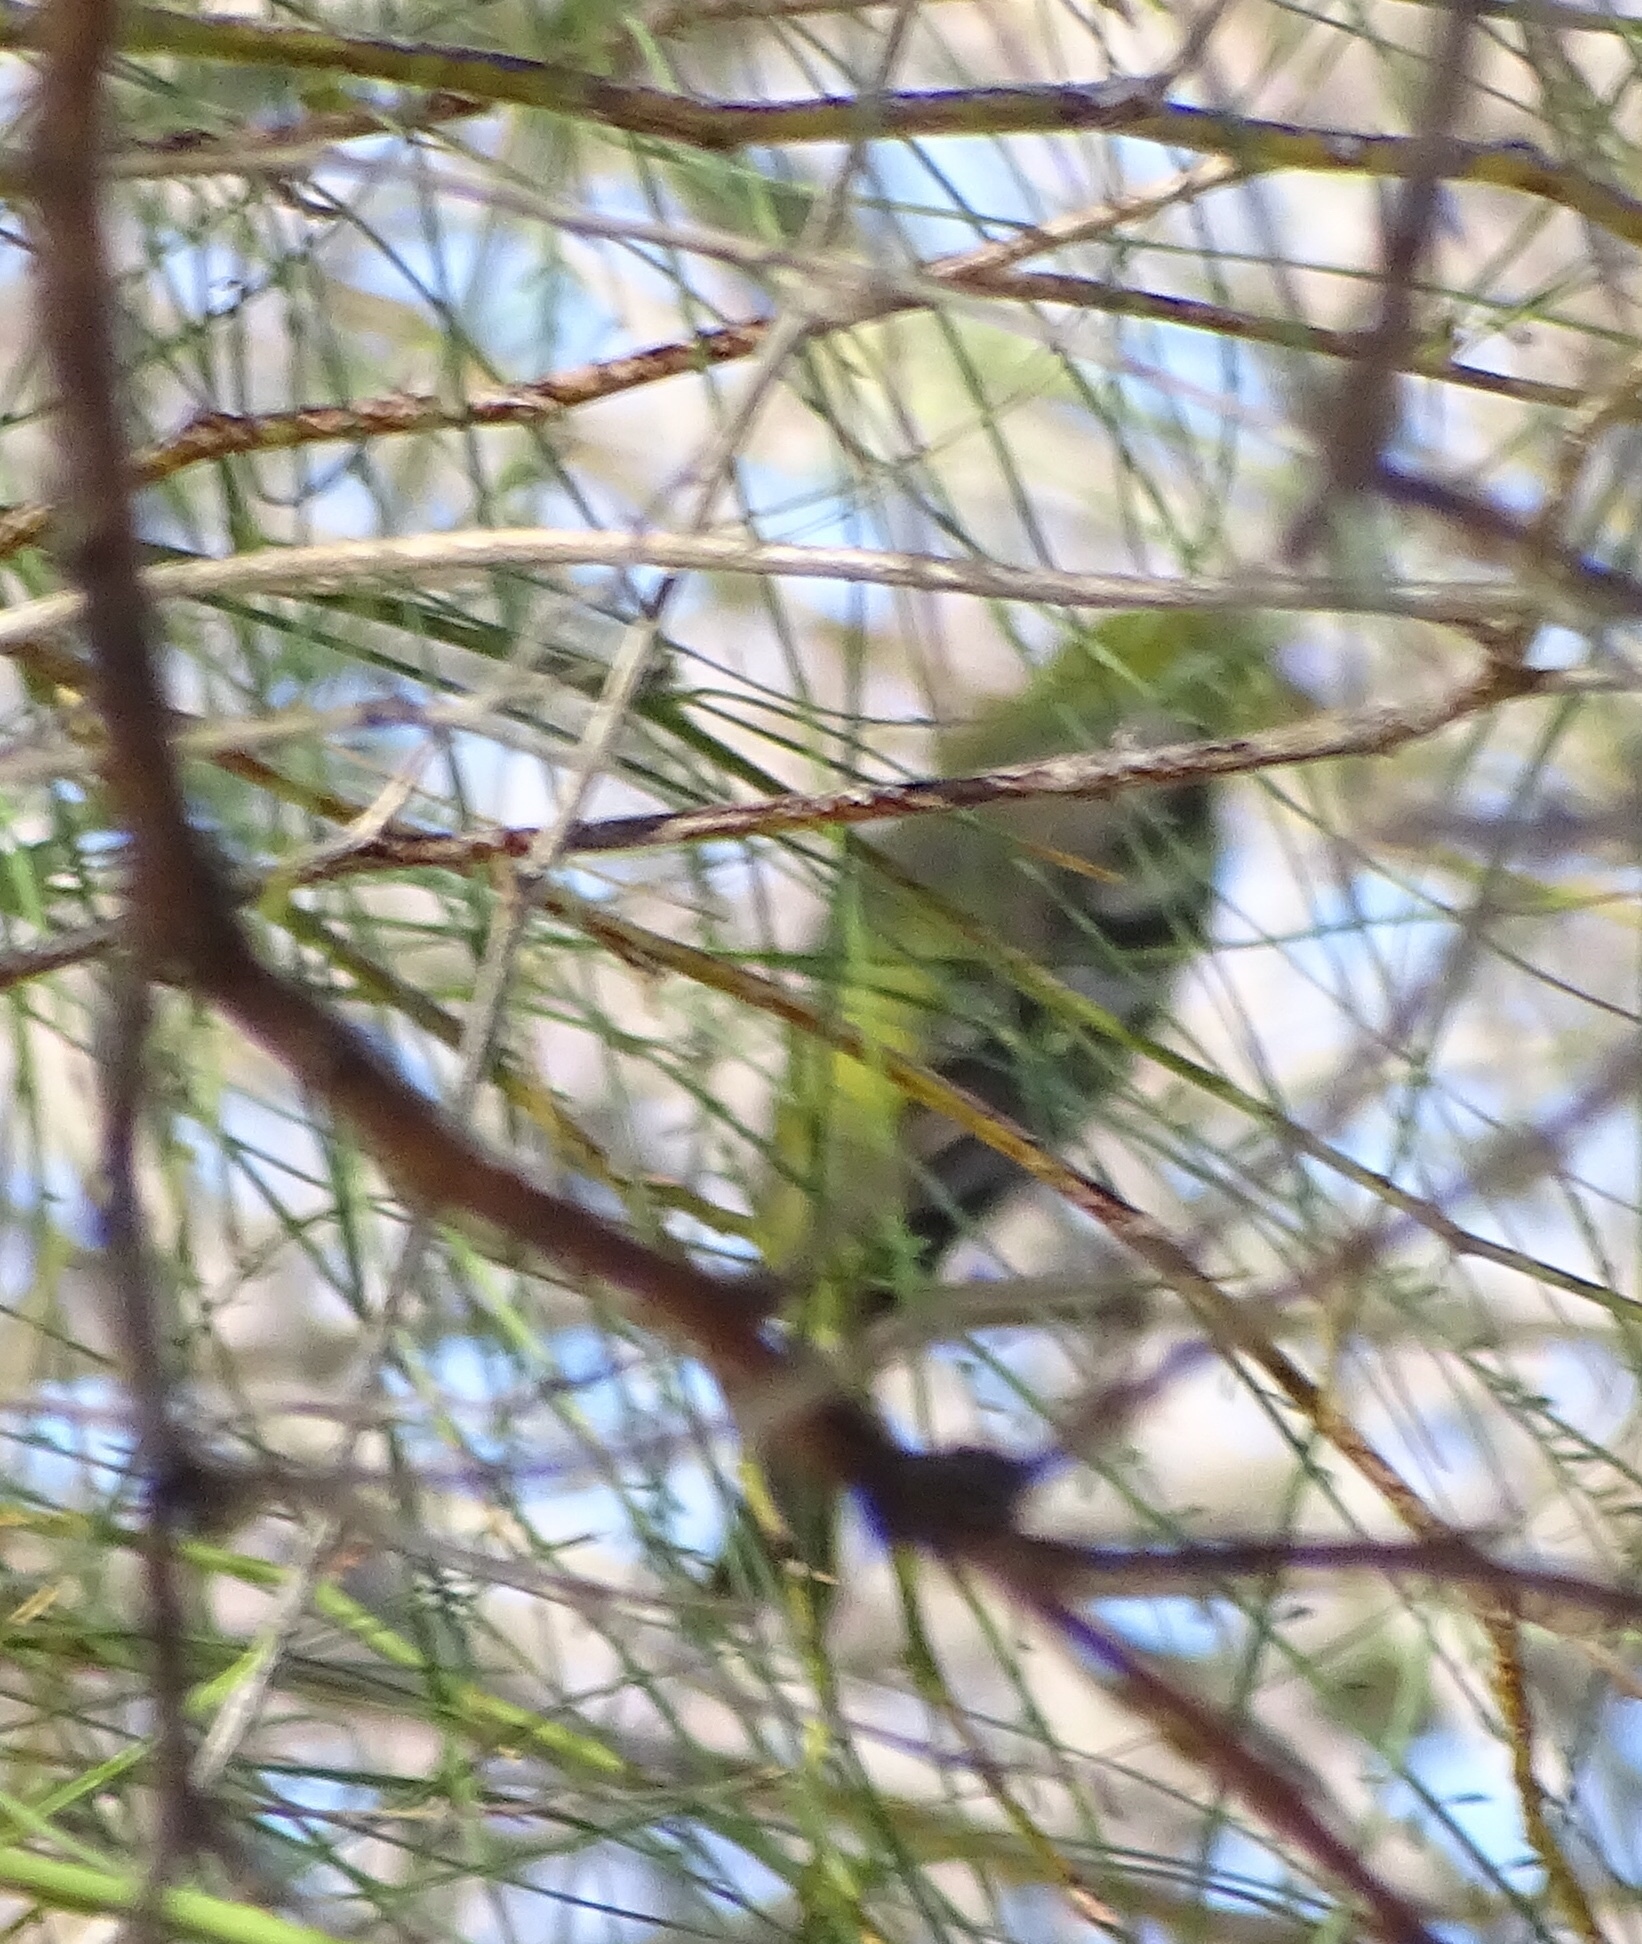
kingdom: Animalia
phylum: Chordata
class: Aves
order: Passeriformes
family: Cardinalidae
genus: Piranga
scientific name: Piranga ludoviciana
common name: Western tanager
